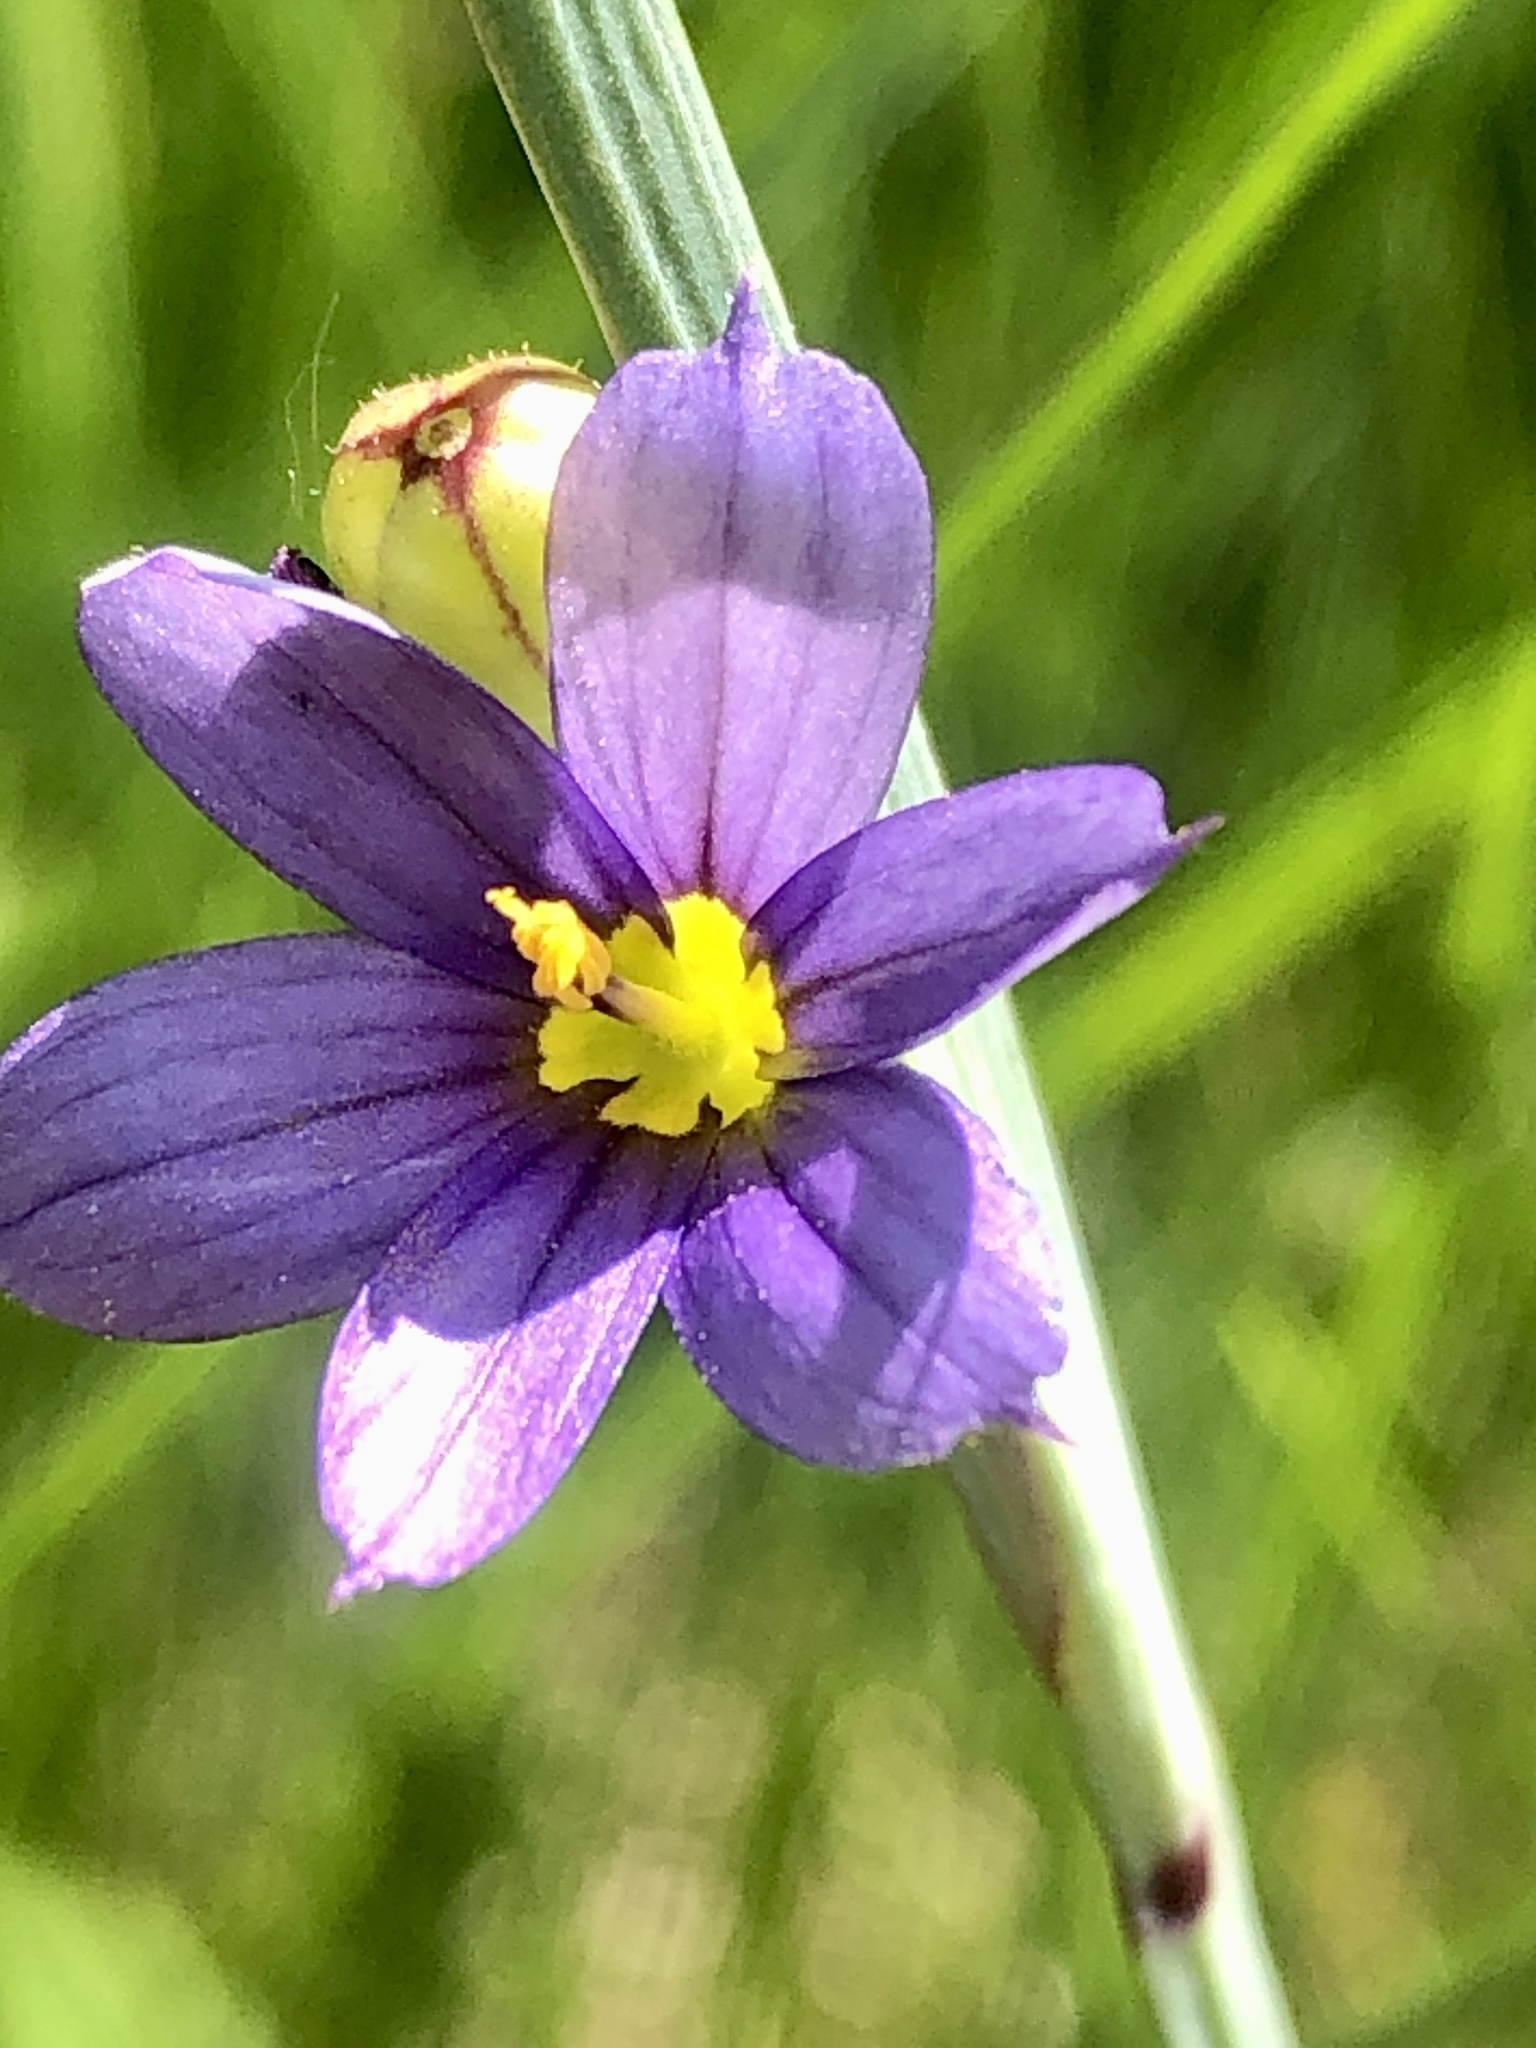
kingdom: Plantae
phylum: Tracheophyta
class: Liliopsida
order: Asparagales
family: Iridaceae
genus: Sisyrinchium
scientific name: Sisyrinchium montanum
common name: American blue-eyed-grass
